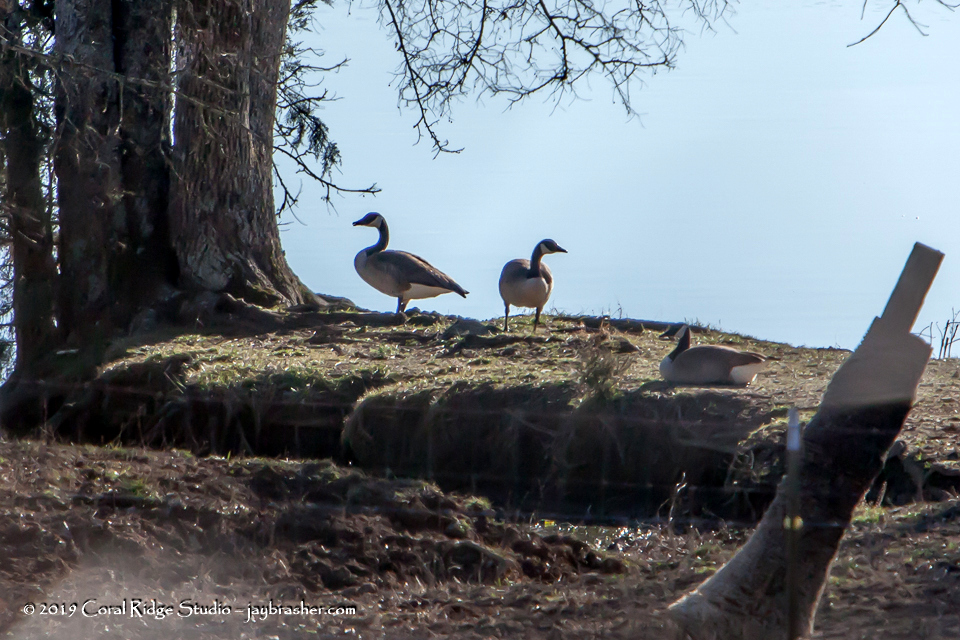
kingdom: Animalia
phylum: Chordata
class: Aves
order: Anseriformes
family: Anatidae
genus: Branta
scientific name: Branta canadensis
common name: Canada goose
